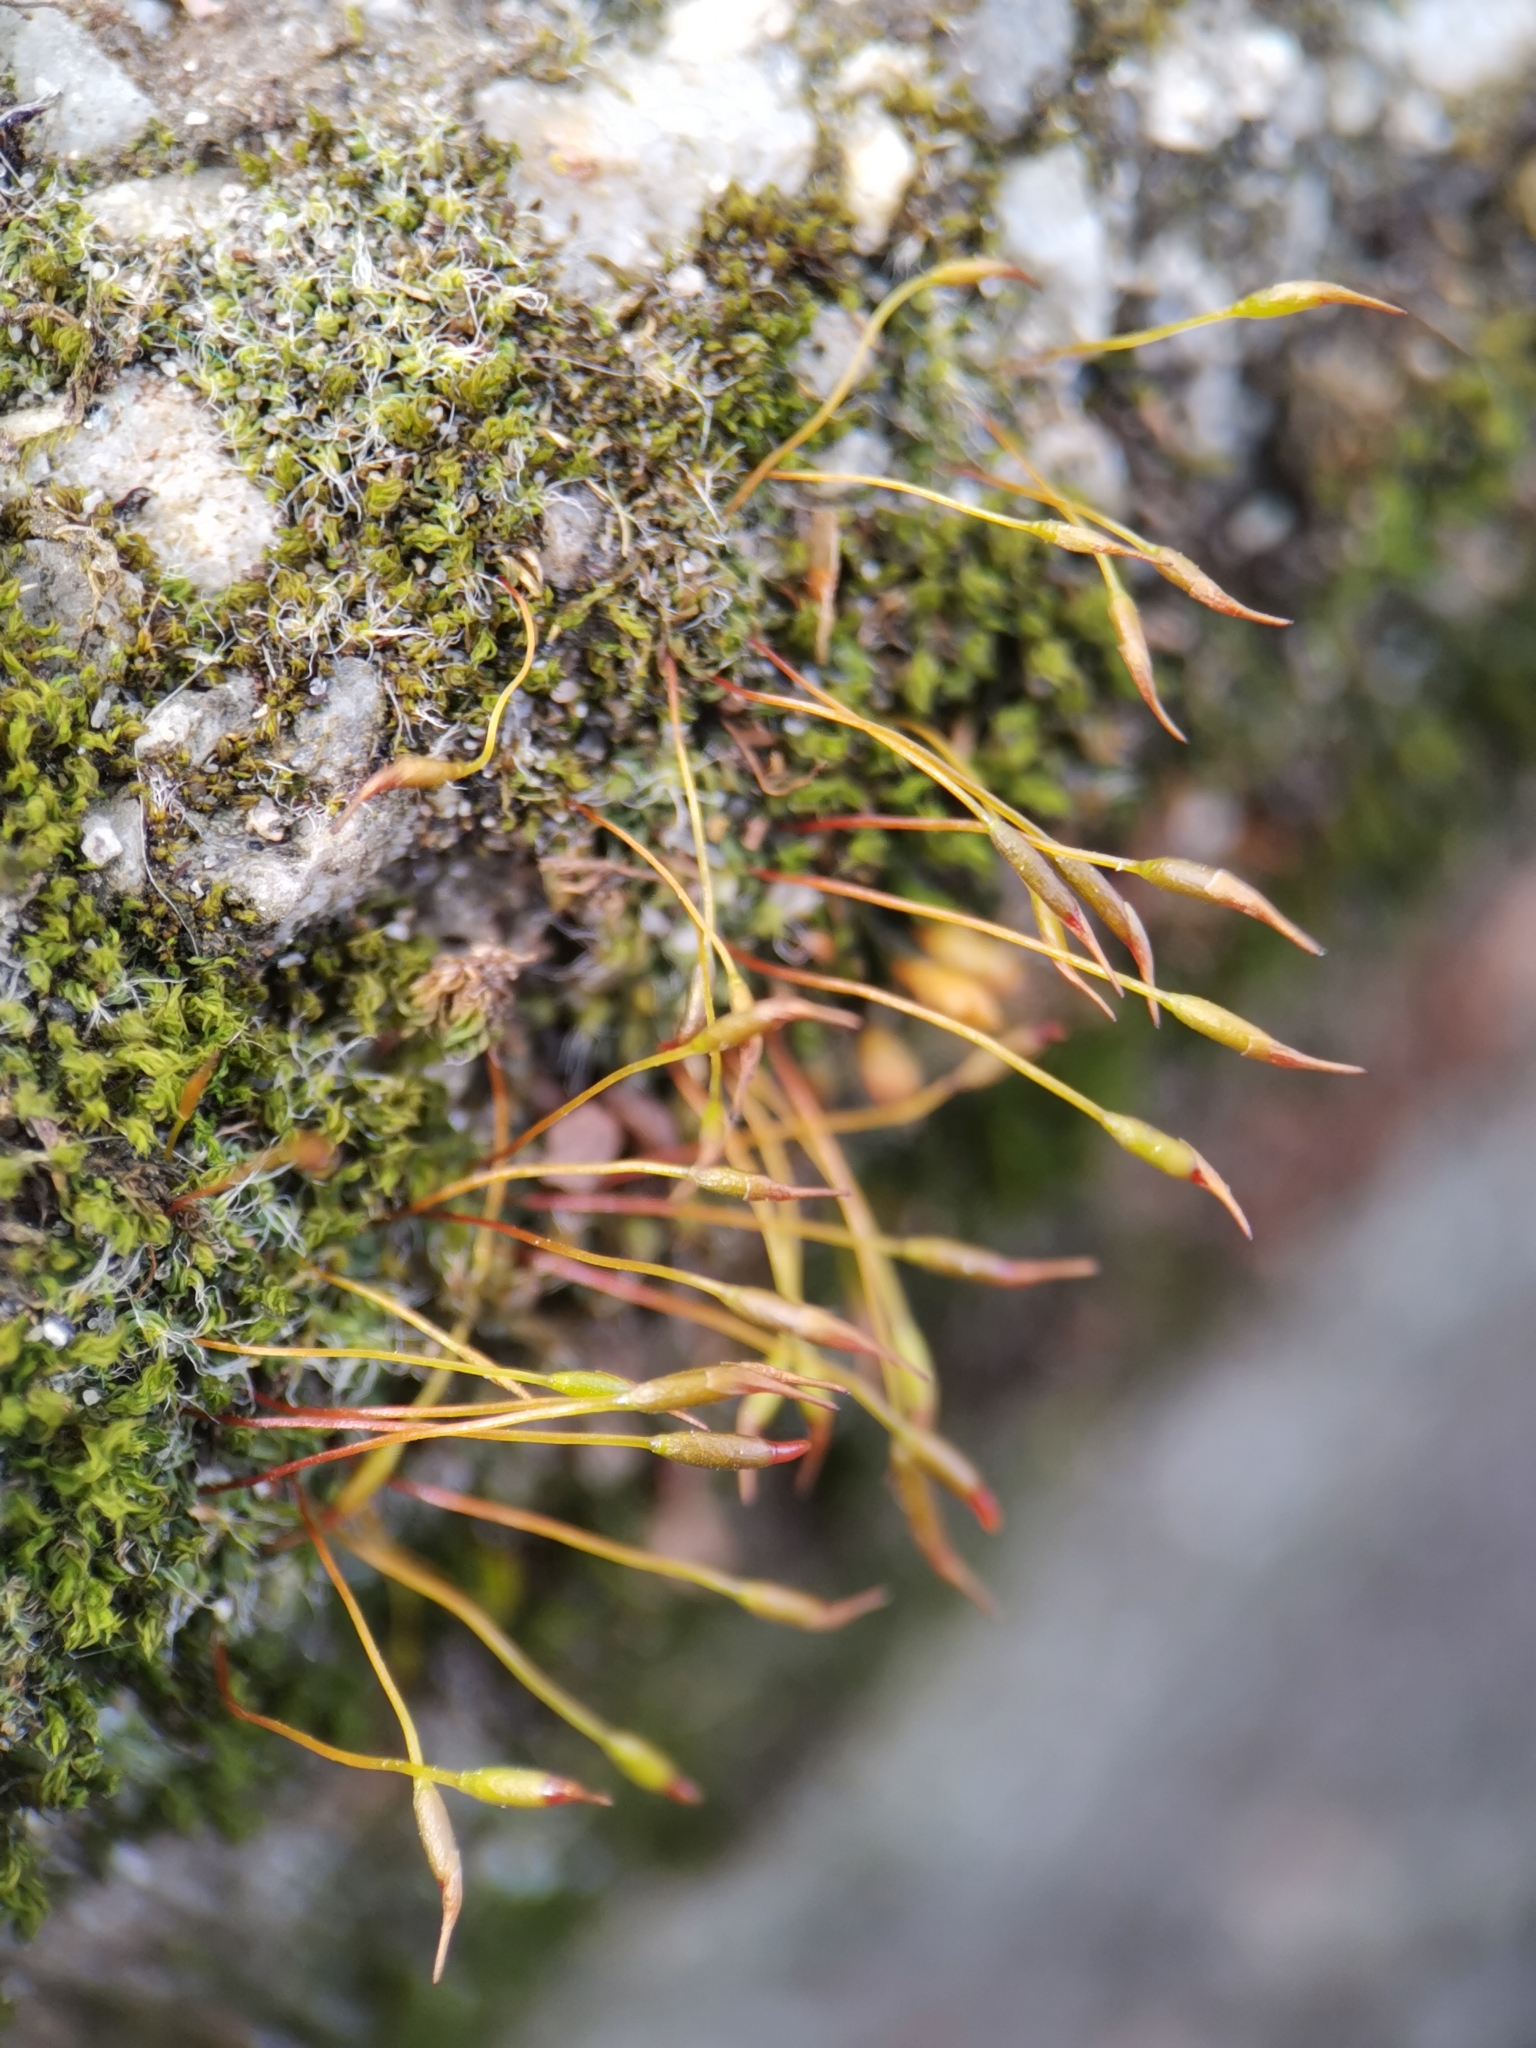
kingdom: Plantae
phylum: Bryophyta
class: Bryopsida
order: Pottiales
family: Pottiaceae
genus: Tortula
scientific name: Tortula muralis
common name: Wall screw-moss
